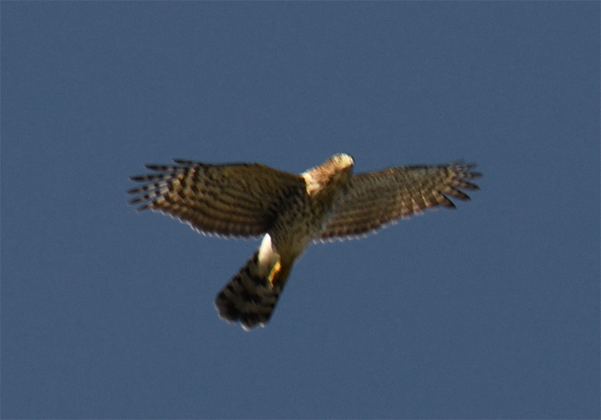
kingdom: Animalia
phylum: Chordata
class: Aves
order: Accipitriformes
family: Accipitridae
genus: Accipiter
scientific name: Accipiter cooperii
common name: Cooper's hawk
